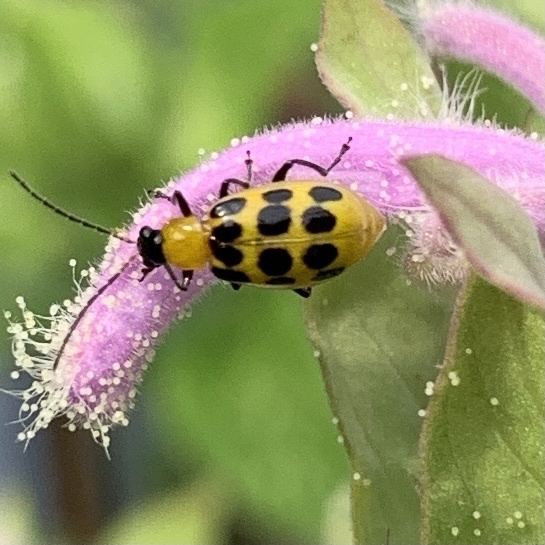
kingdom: Animalia
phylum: Arthropoda
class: Insecta
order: Coleoptera
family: Chrysomelidae
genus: Diabrotica
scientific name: Diabrotica undecimpunctata
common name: Spotted cucumber beetle
